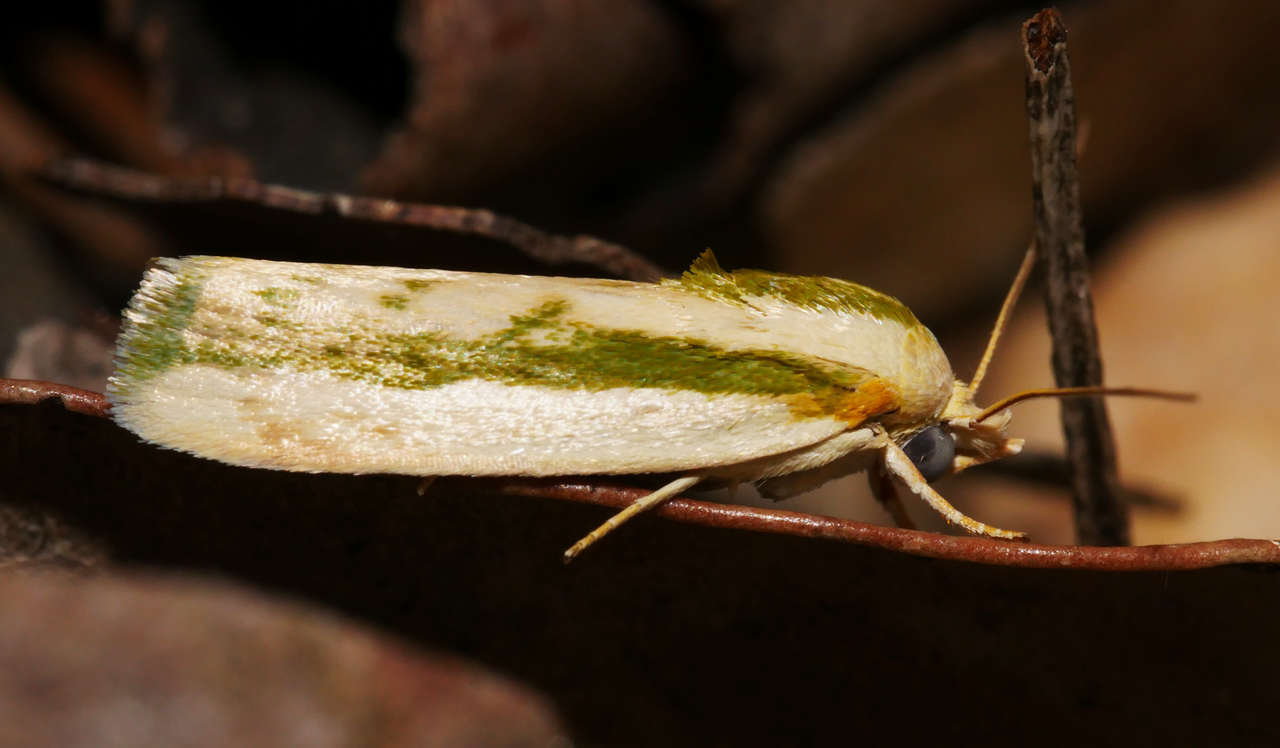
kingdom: Animalia
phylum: Arthropoda
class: Insecta
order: Lepidoptera
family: Nolidae
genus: Earias
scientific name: Earias huegeliana
